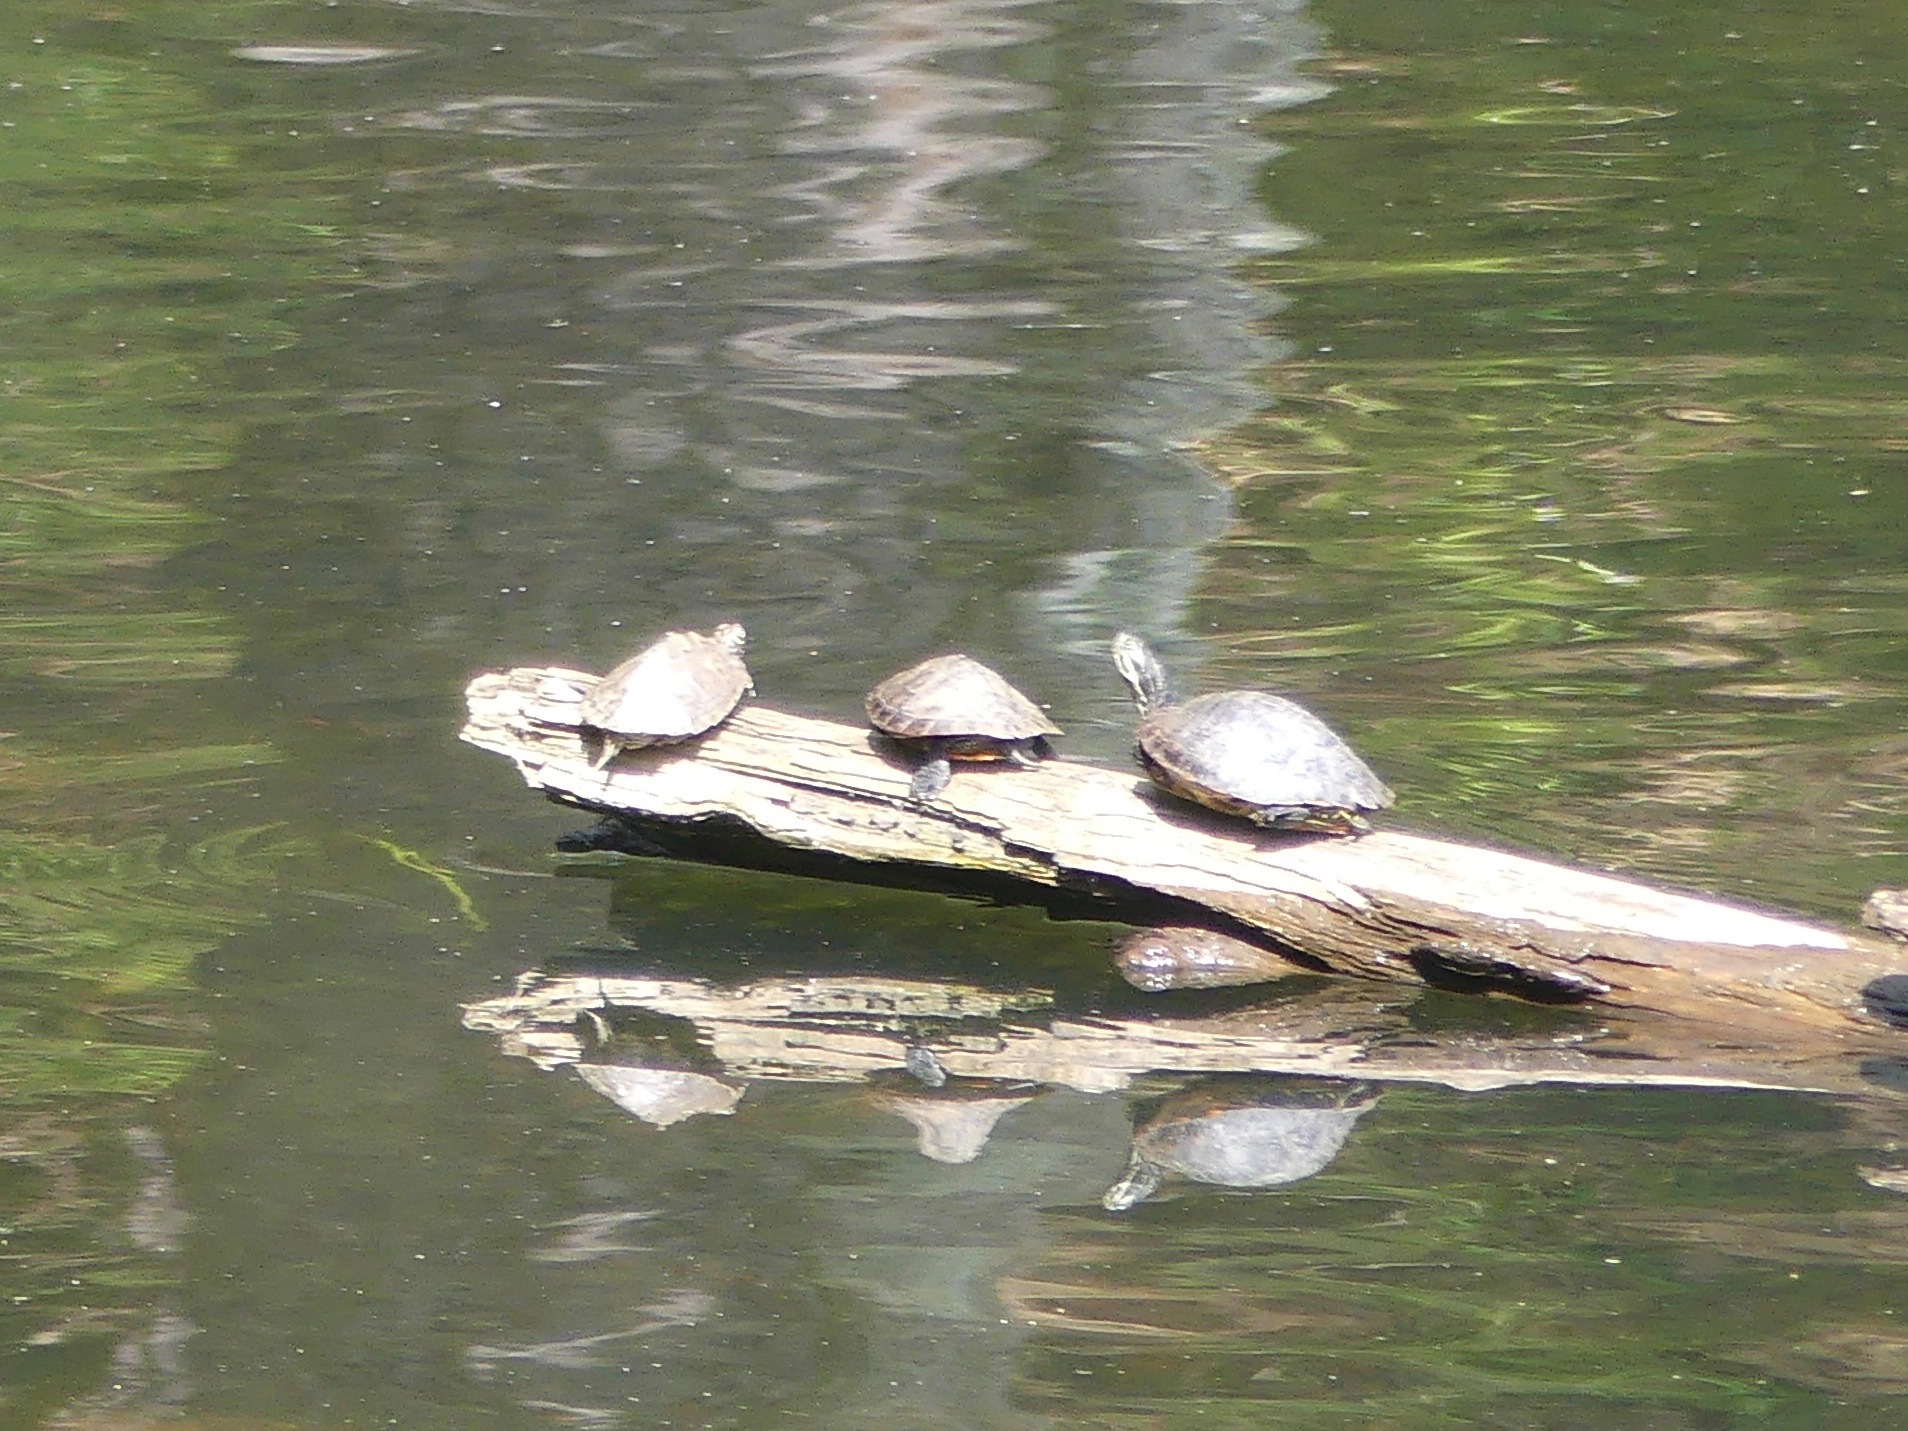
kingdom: Animalia
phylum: Chordata
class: Testudines
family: Emydidae
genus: Pseudemys
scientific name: Pseudemys concinna
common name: Eastern river cooter
